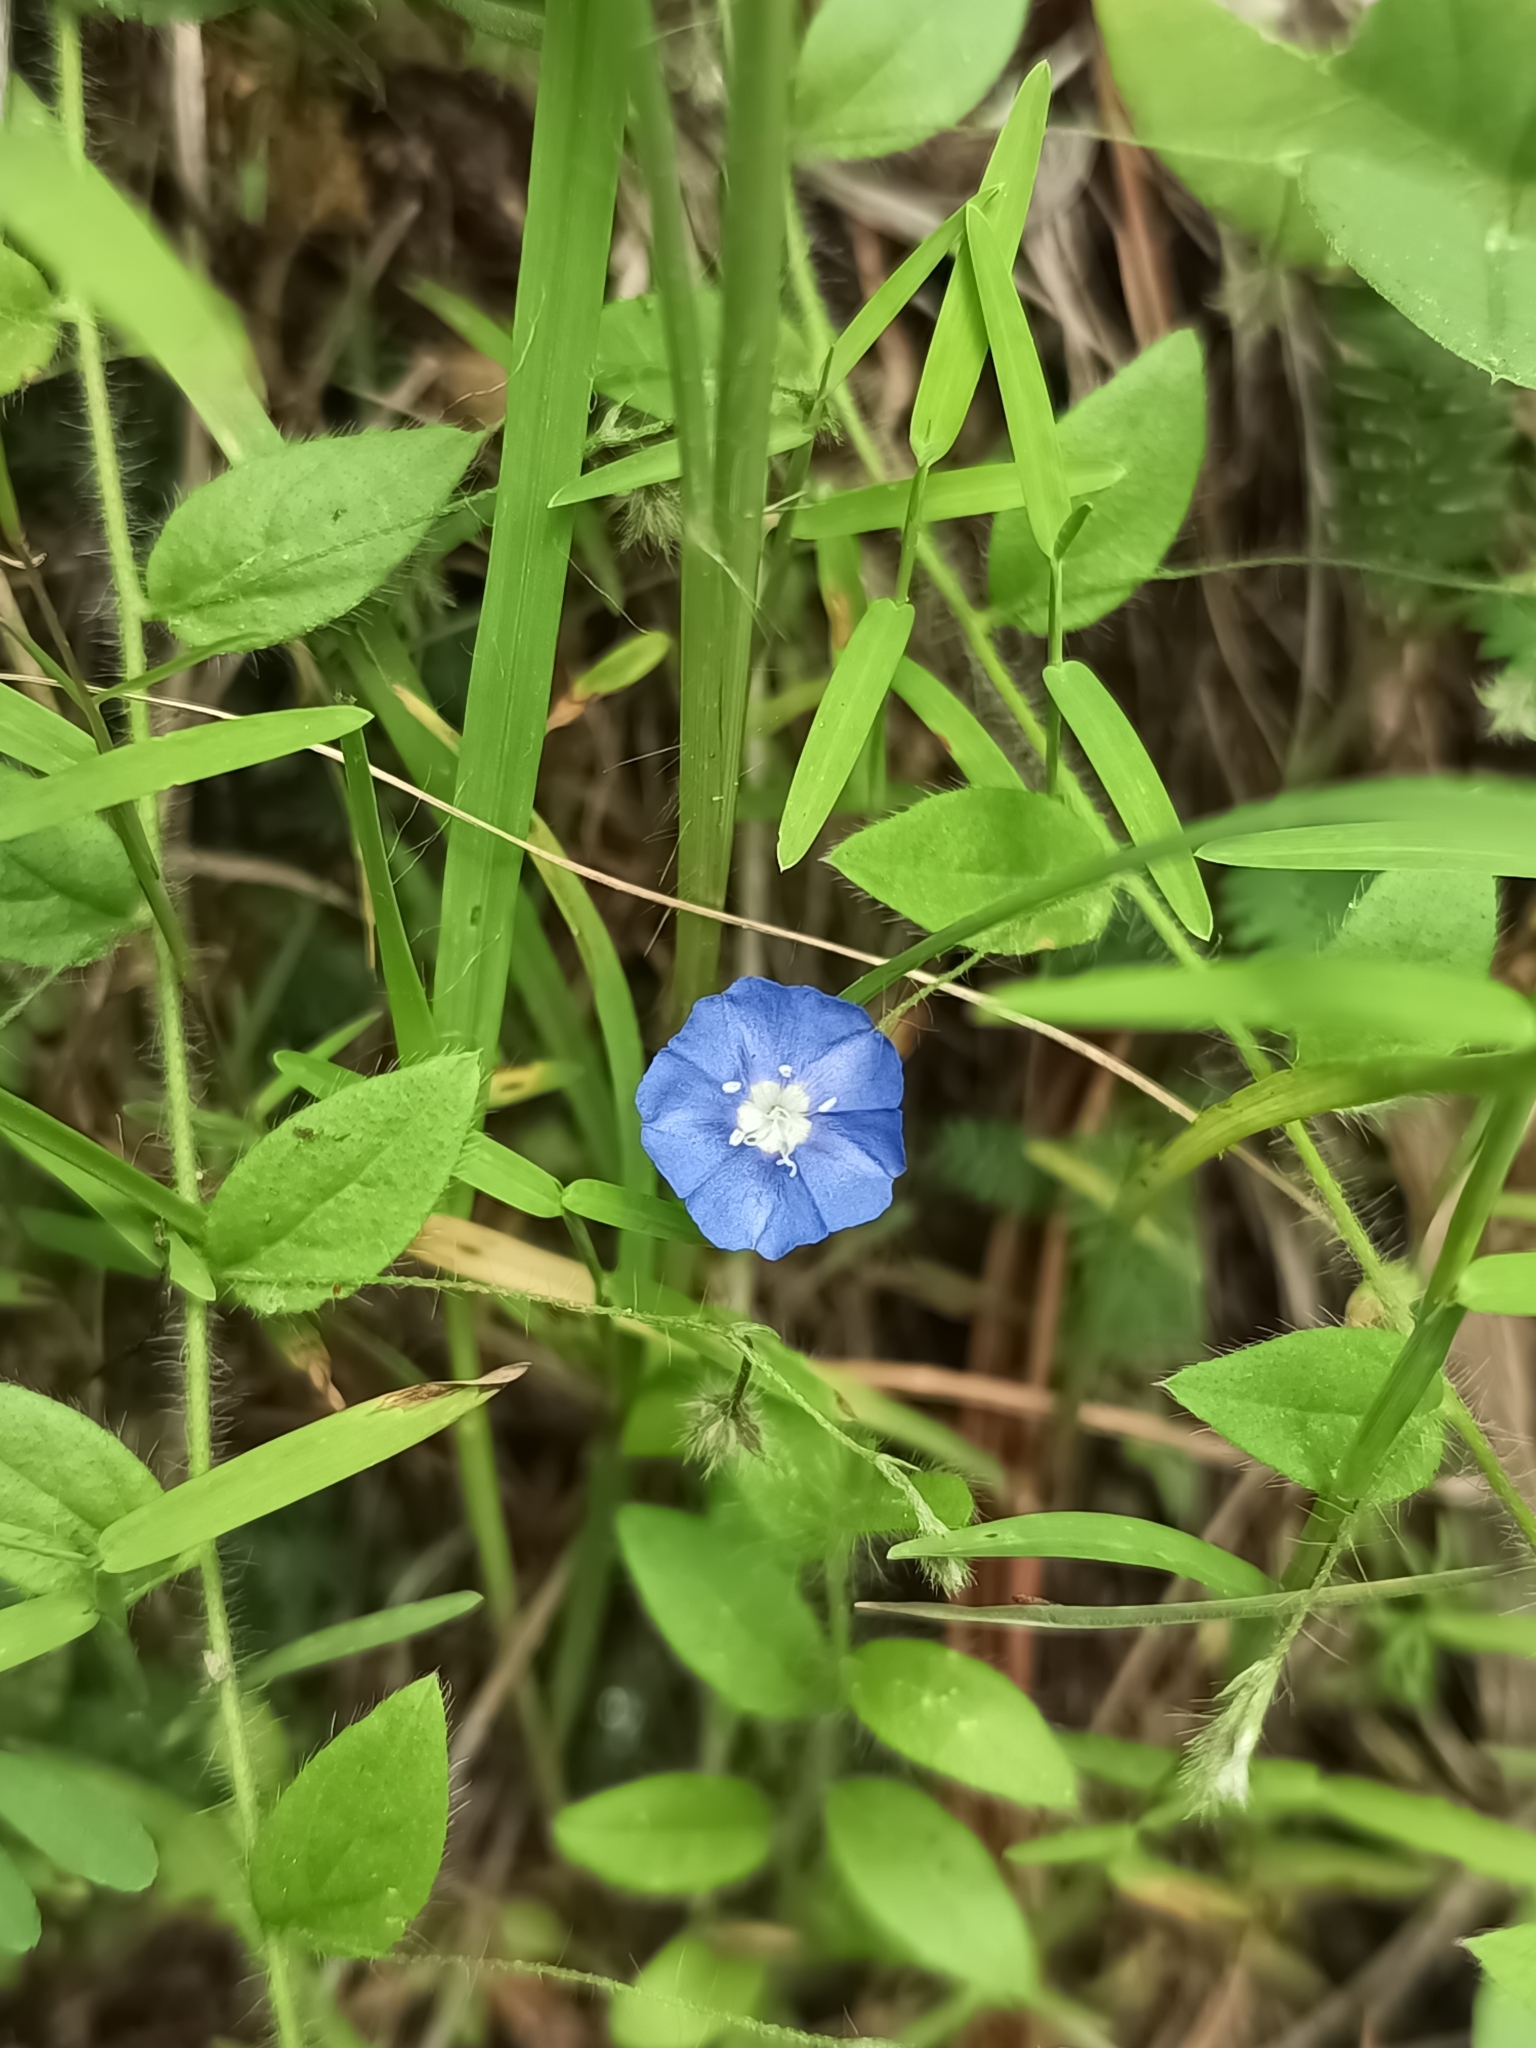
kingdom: Plantae
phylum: Tracheophyta
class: Magnoliopsida
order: Solanales
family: Convolvulaceae
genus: Evolvulus
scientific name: Evolvulus alsinoides
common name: Slender dwarf morning-glory
